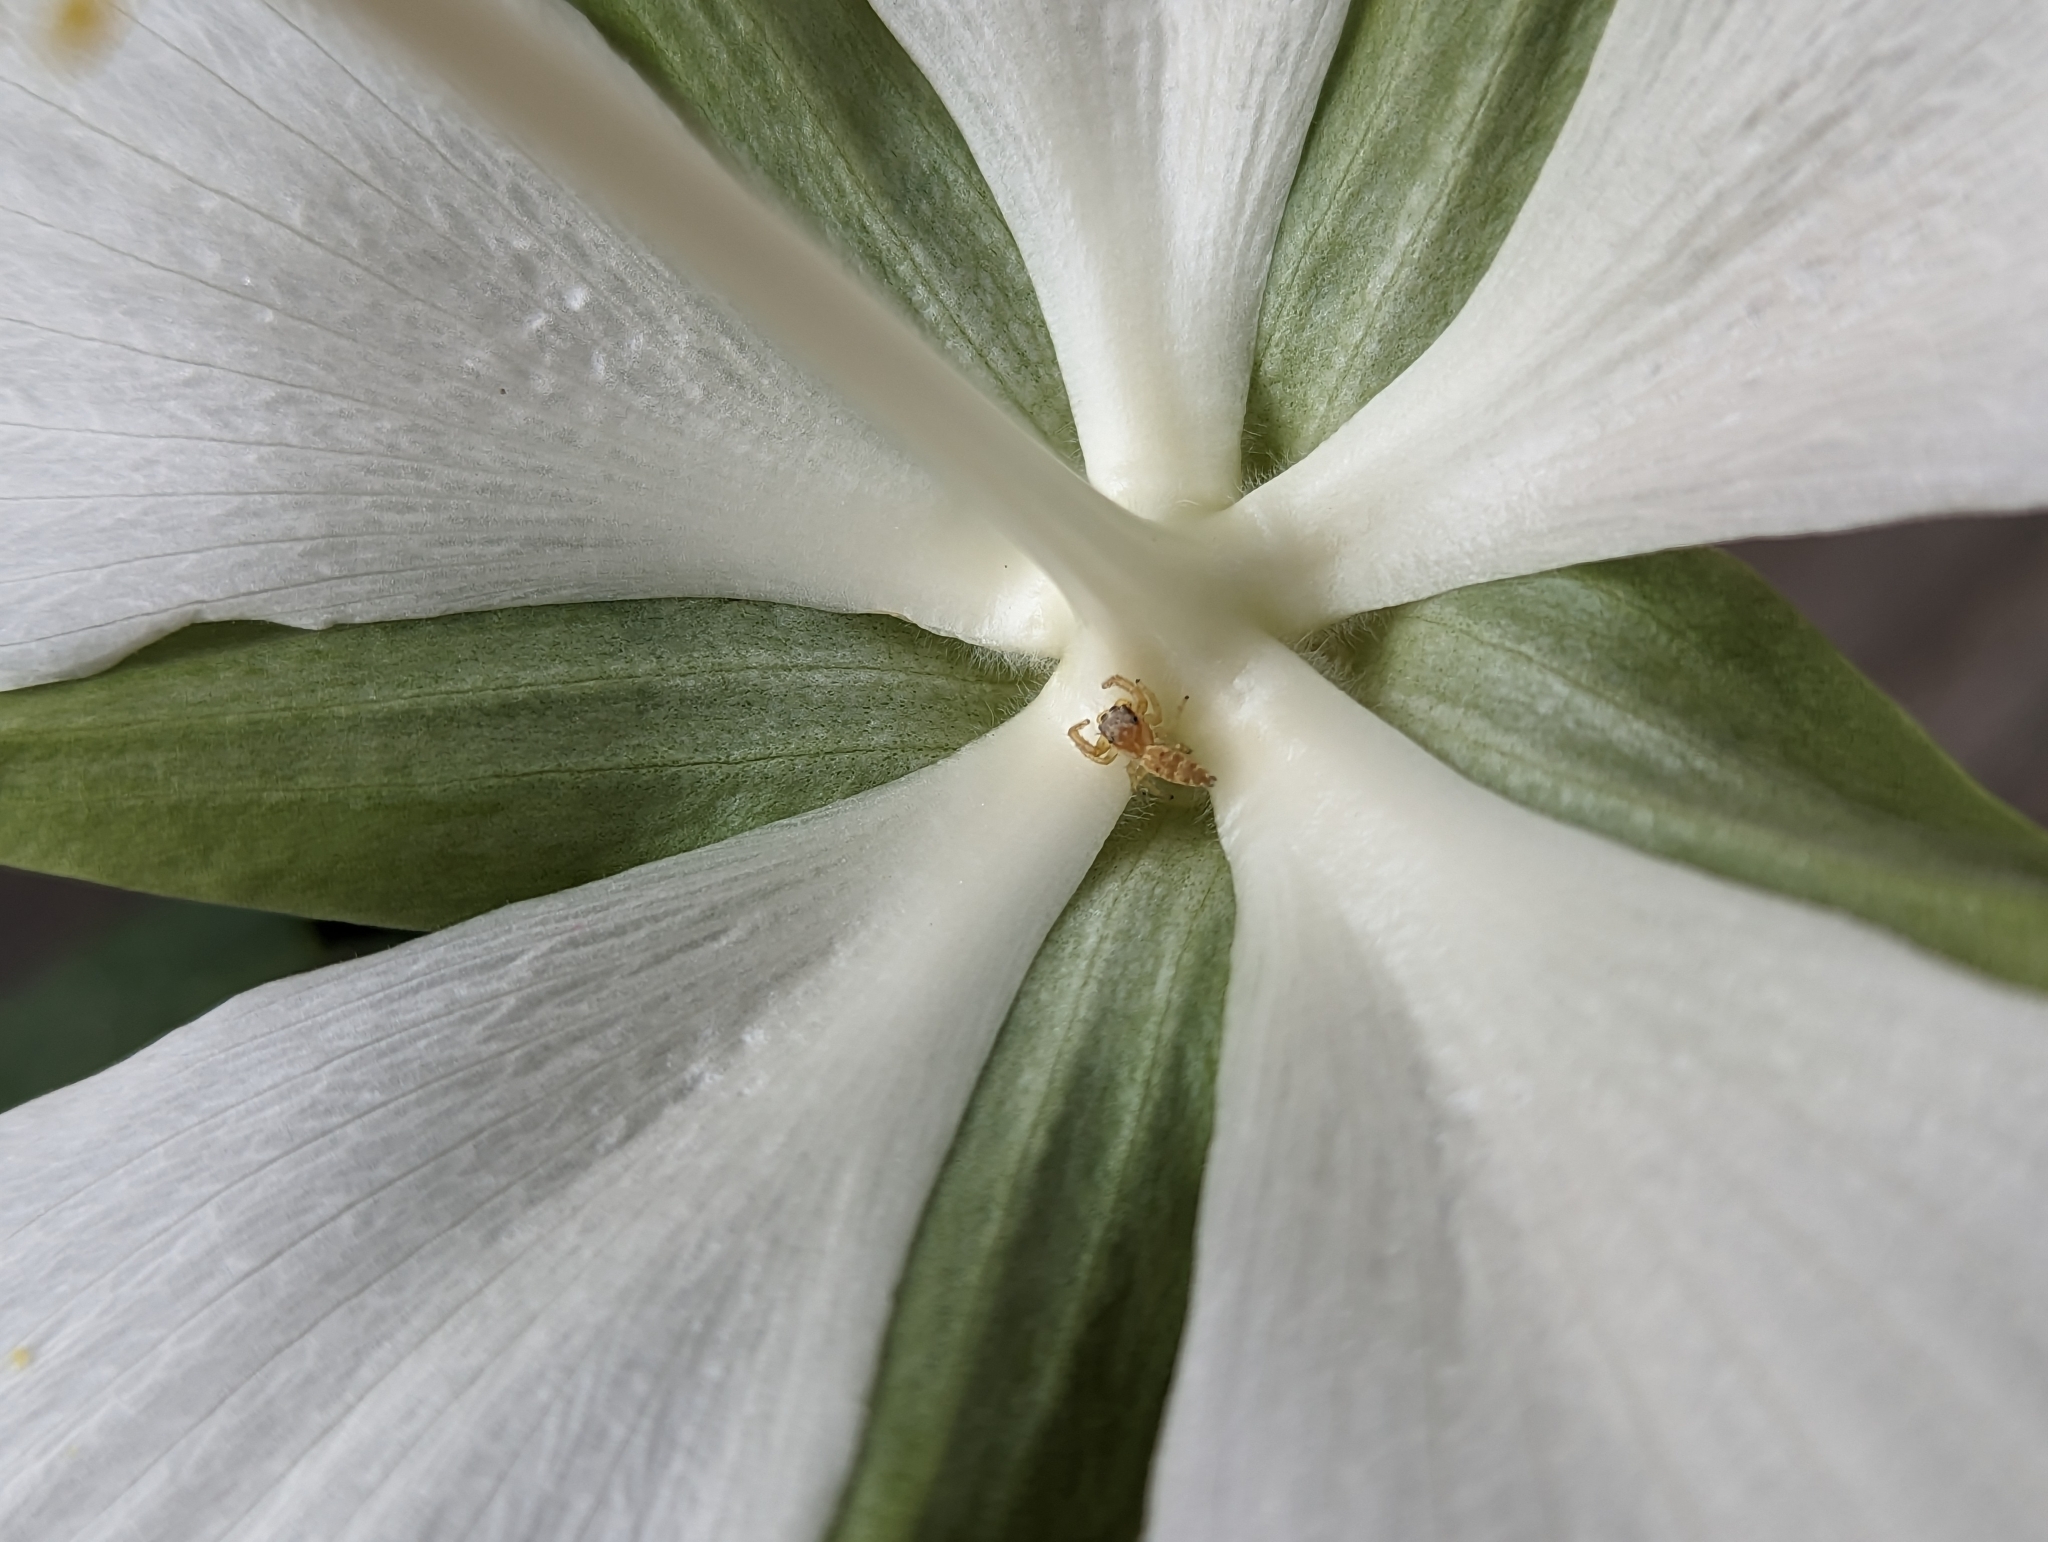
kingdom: Animalia
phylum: Arthropoda
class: Arachnida
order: Araneae
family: Salticidae
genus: Hentzia
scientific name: Hentzia
